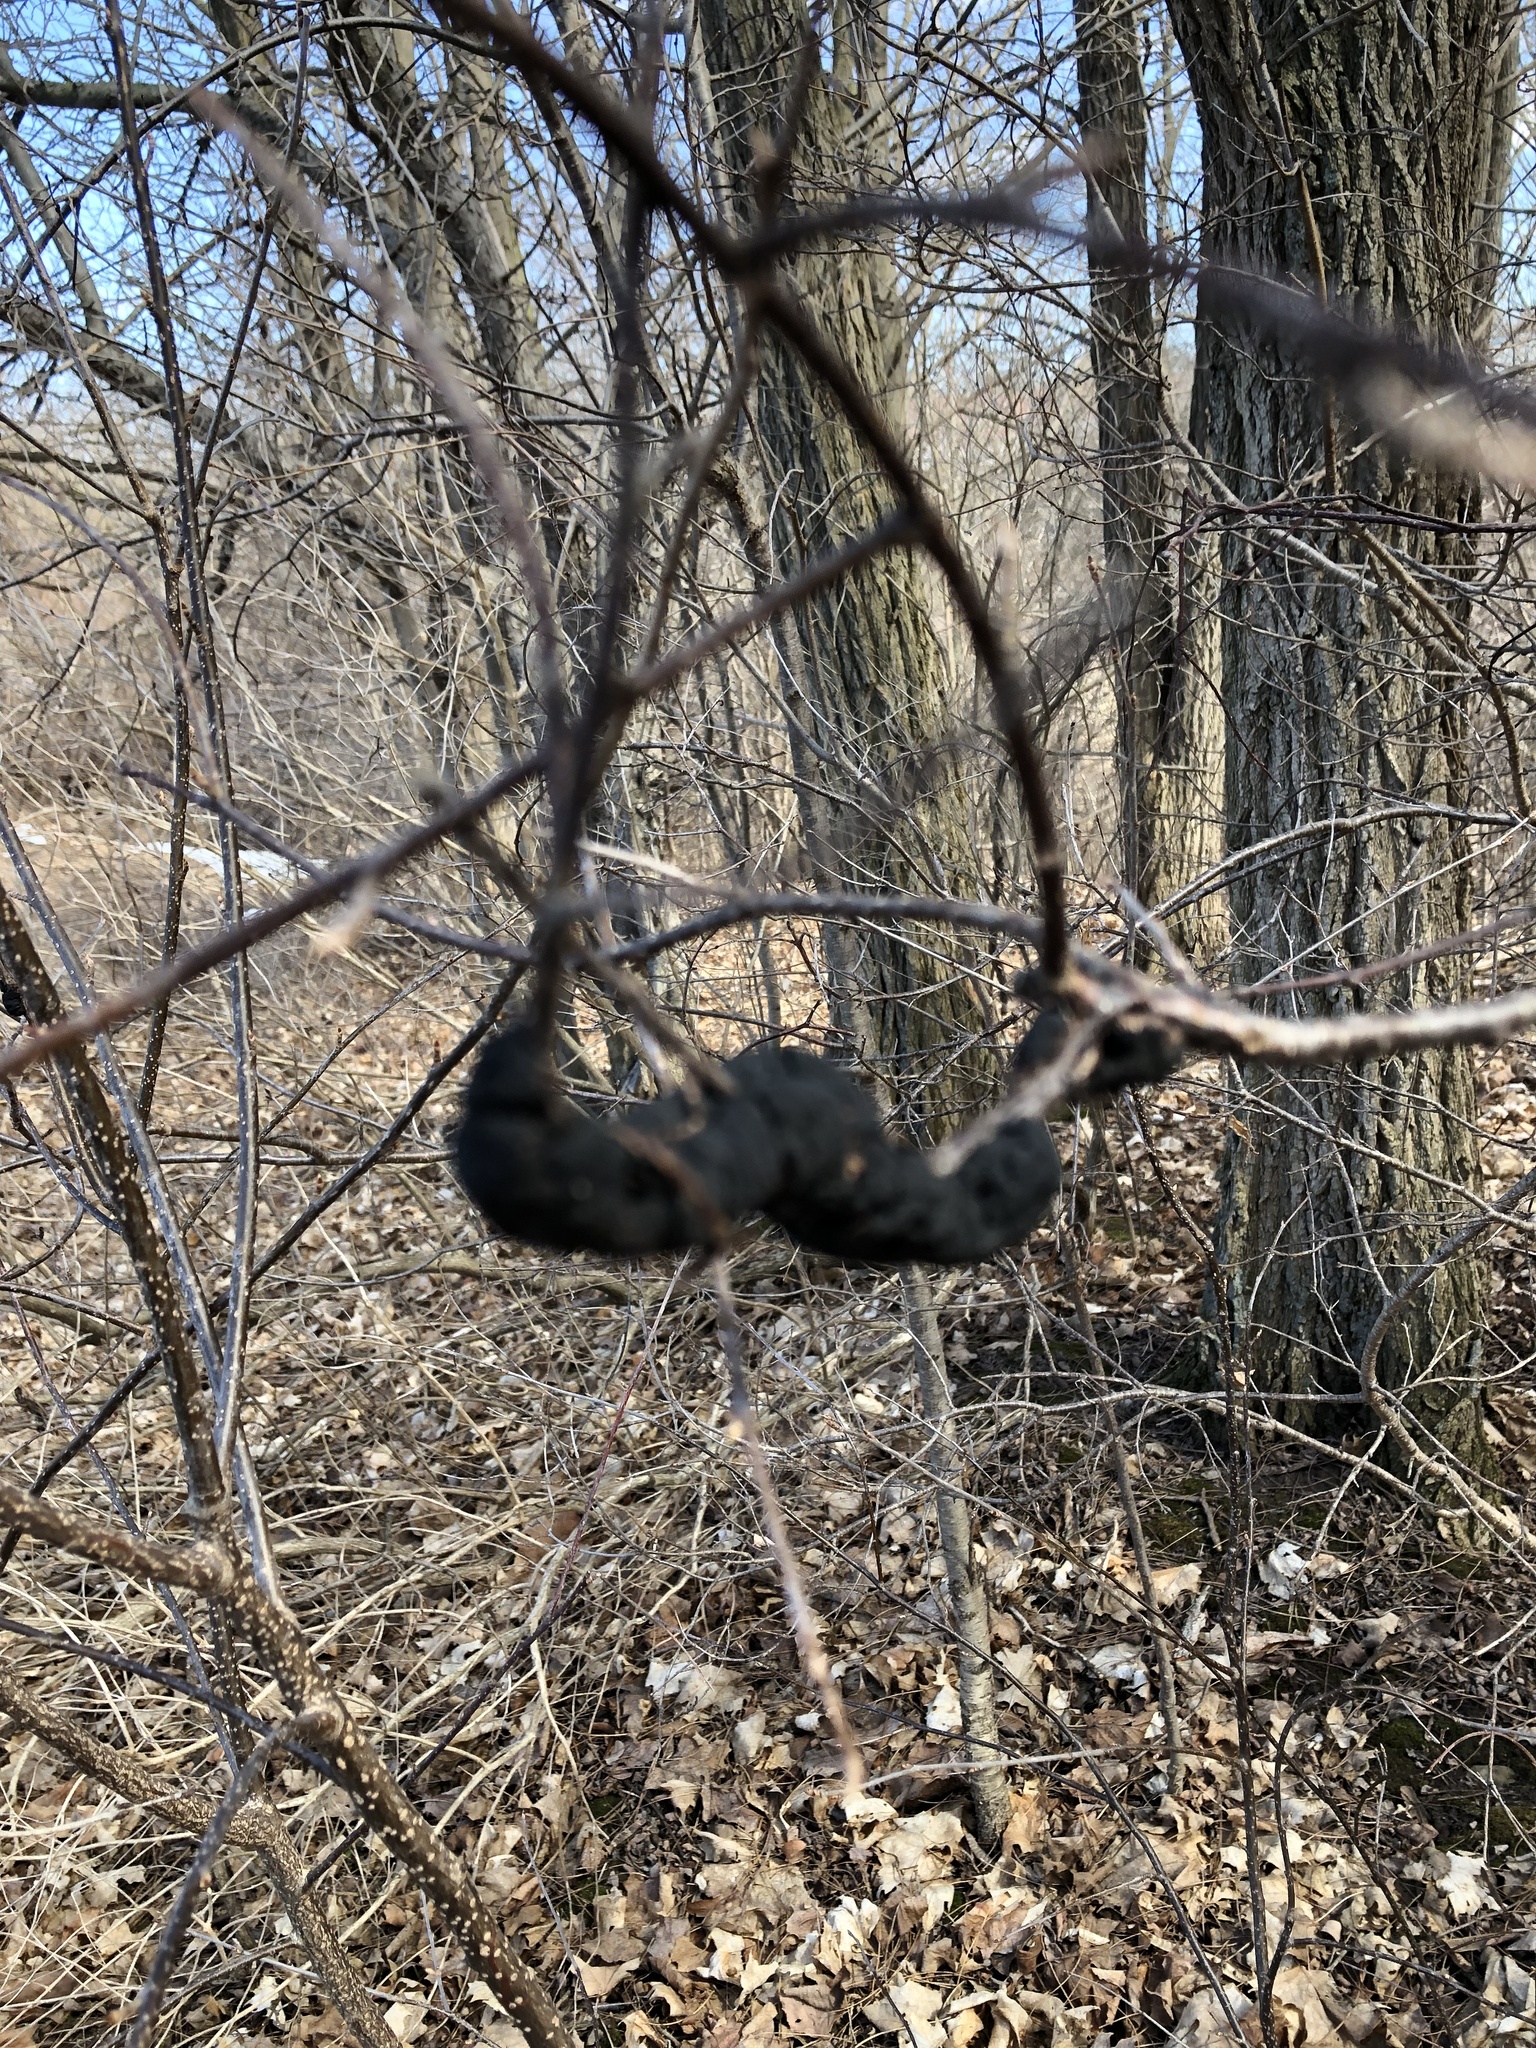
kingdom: Fungi
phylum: Ascomycota
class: Dothideomycetes
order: Venturiales
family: Venturiaceae
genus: Apiosporina
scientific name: Apiosporina morbosa
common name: Black knot
